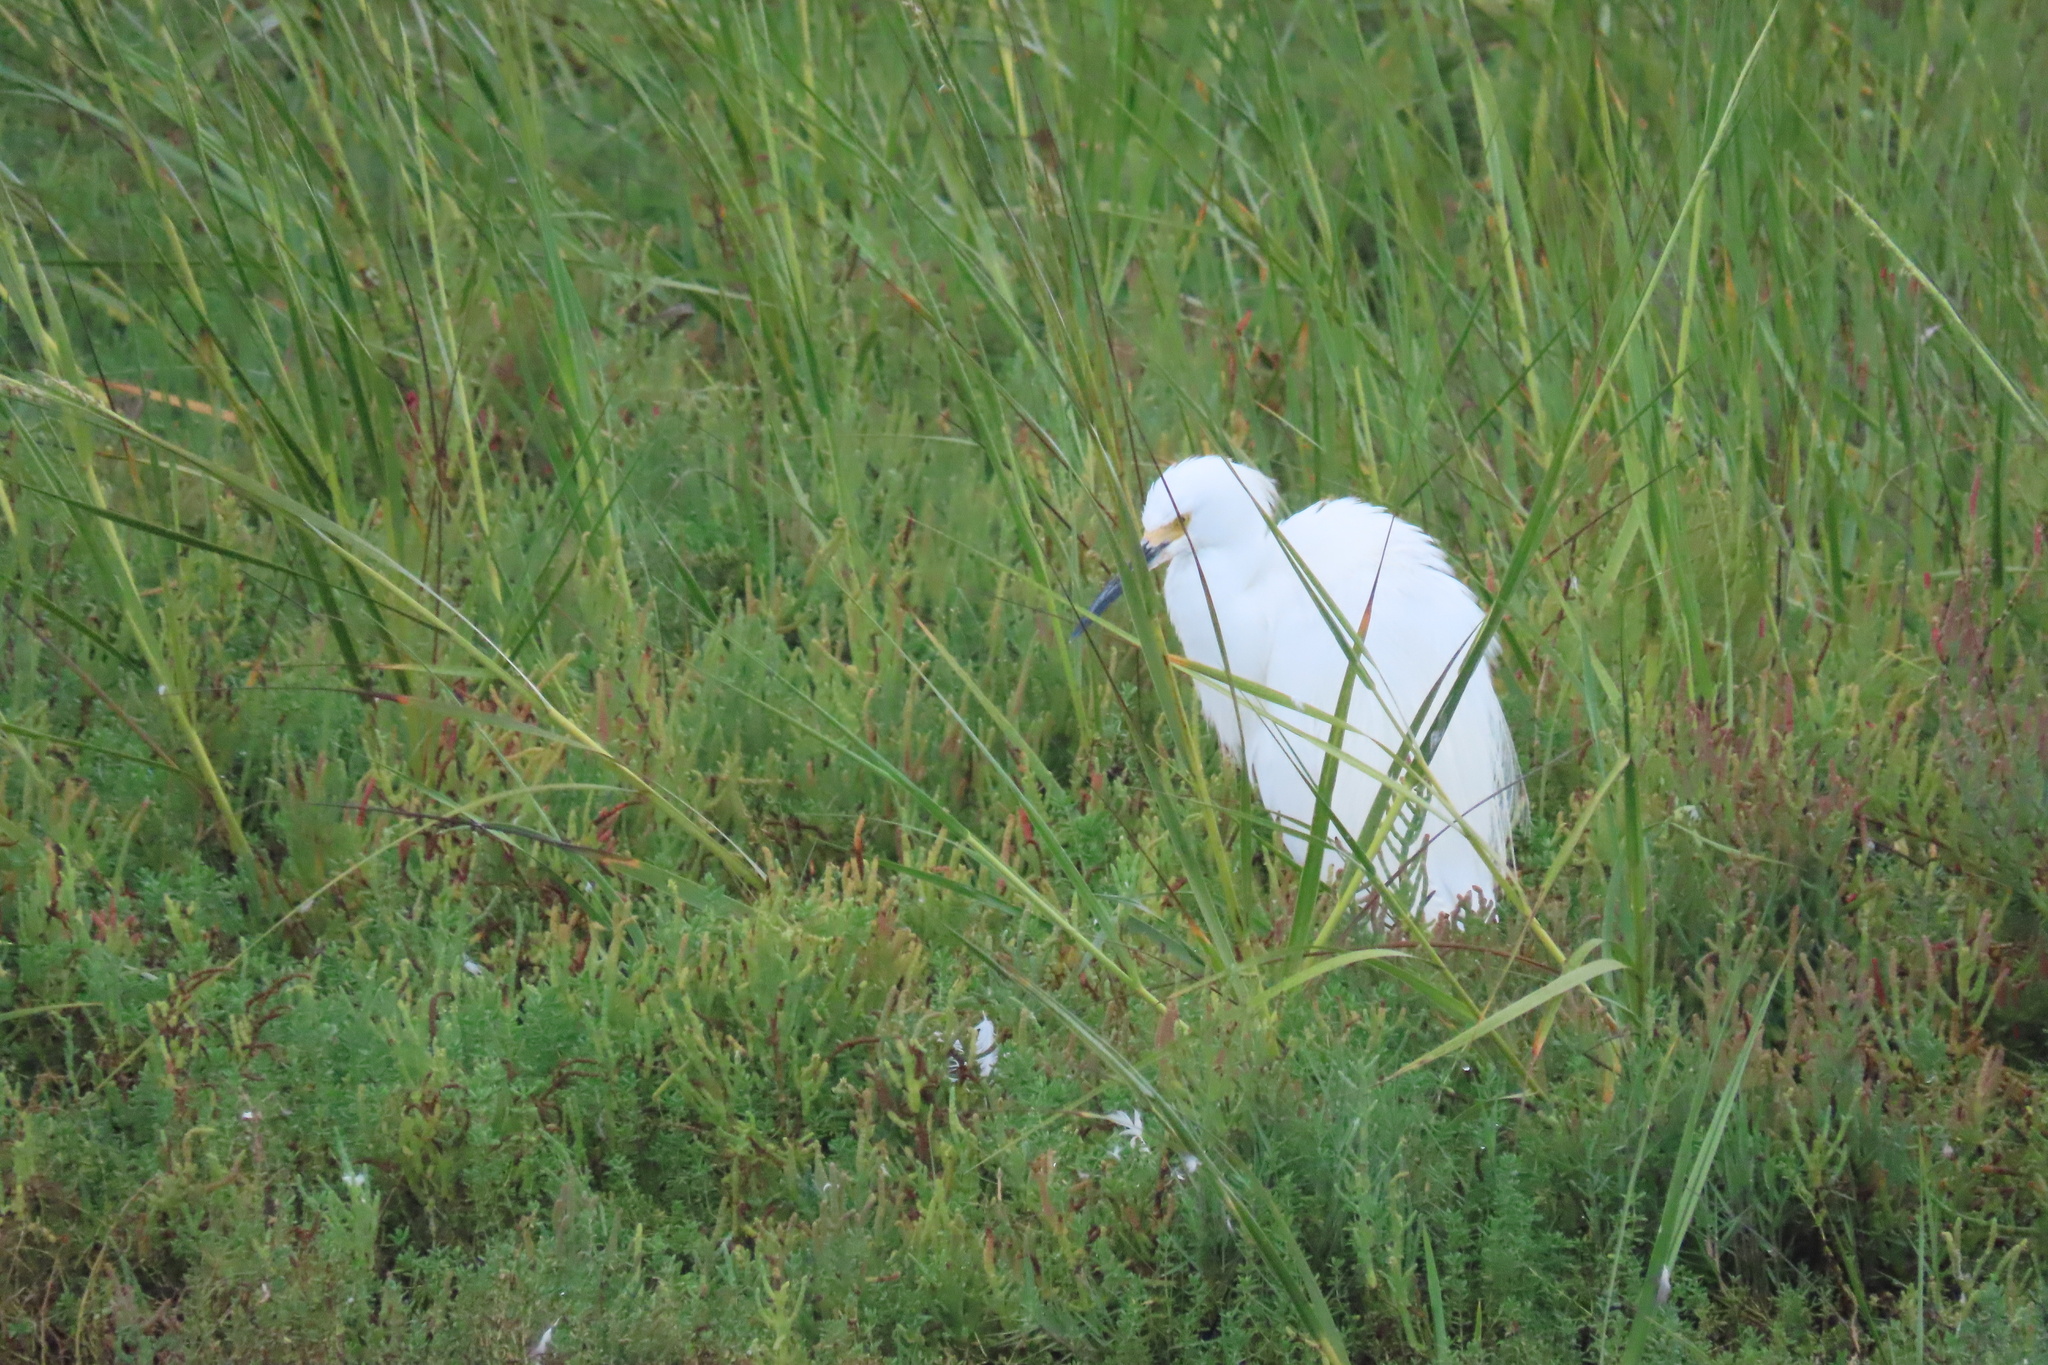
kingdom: Animalia
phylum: Chordata
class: Aves
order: Pelecaniformes
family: Ardeidae
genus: Egretta
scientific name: Egretta thula
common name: Snowy egret
